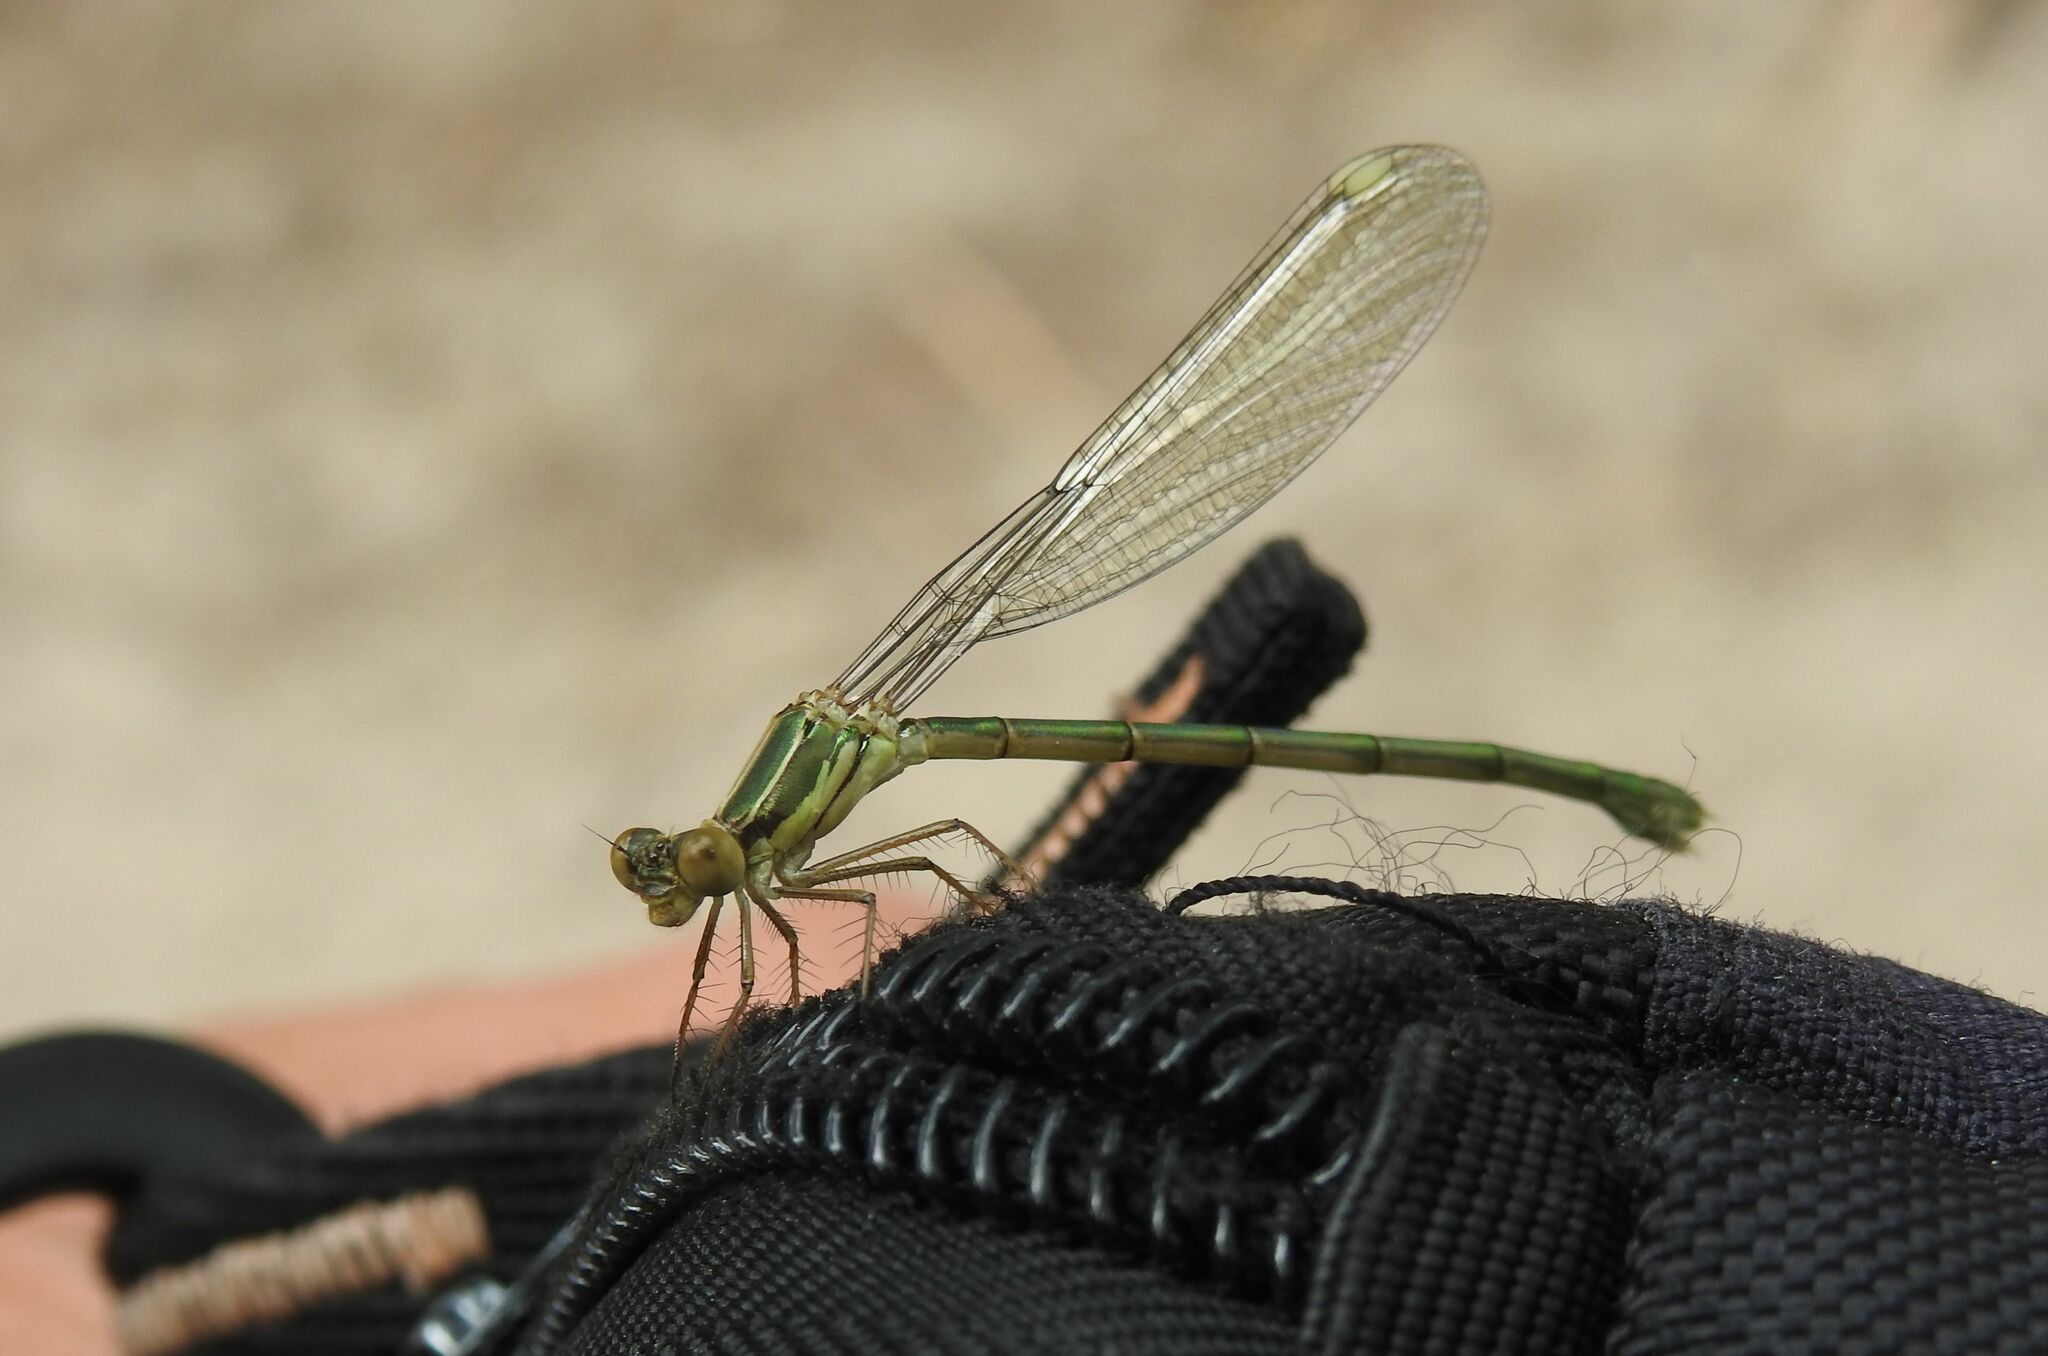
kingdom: Animalia
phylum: Arthropoda
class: Insecta
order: Odonata
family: Lestidae
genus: Chalcolestes
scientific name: Chalcolestes viridis
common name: Green emerald damselfly
